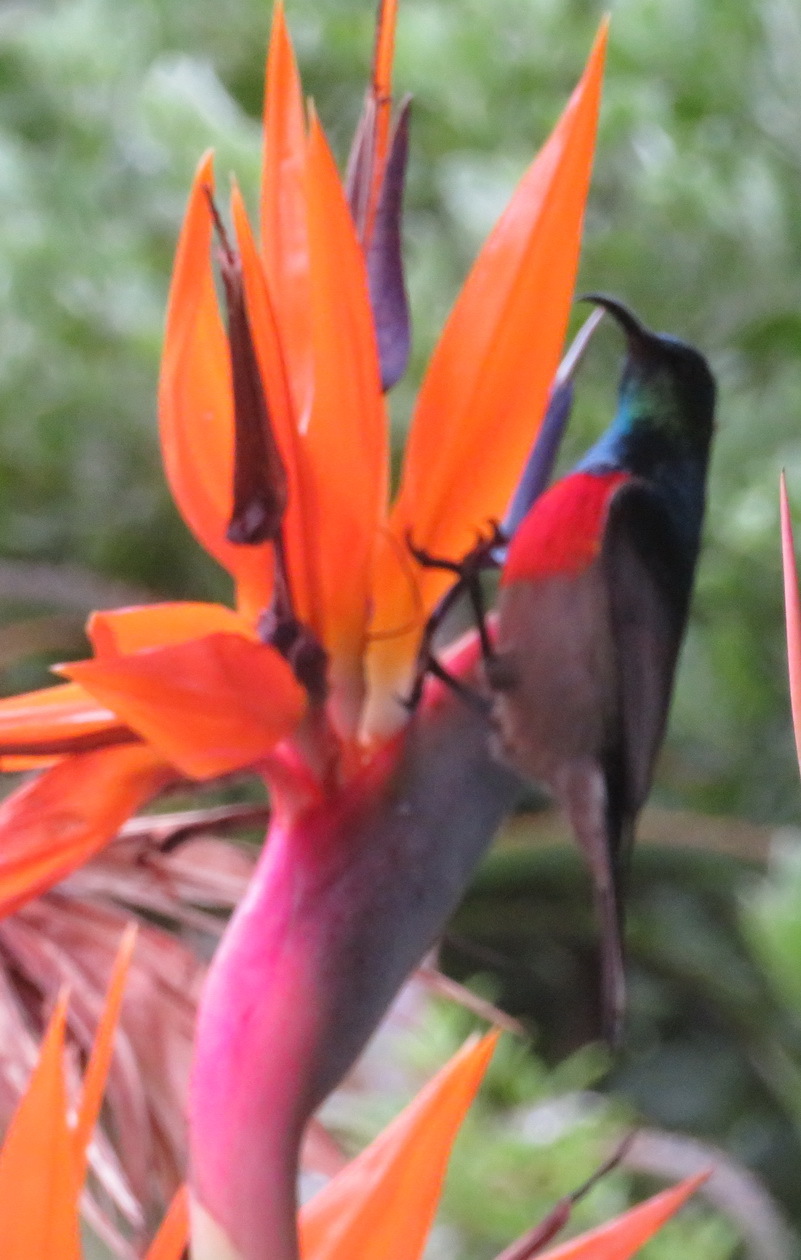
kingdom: Animalia
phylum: Chordata
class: Aves
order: Passeriformes
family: Nectariniidae
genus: Cinnyris
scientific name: Cinnyris afer
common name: Greater double-collared sunbird
